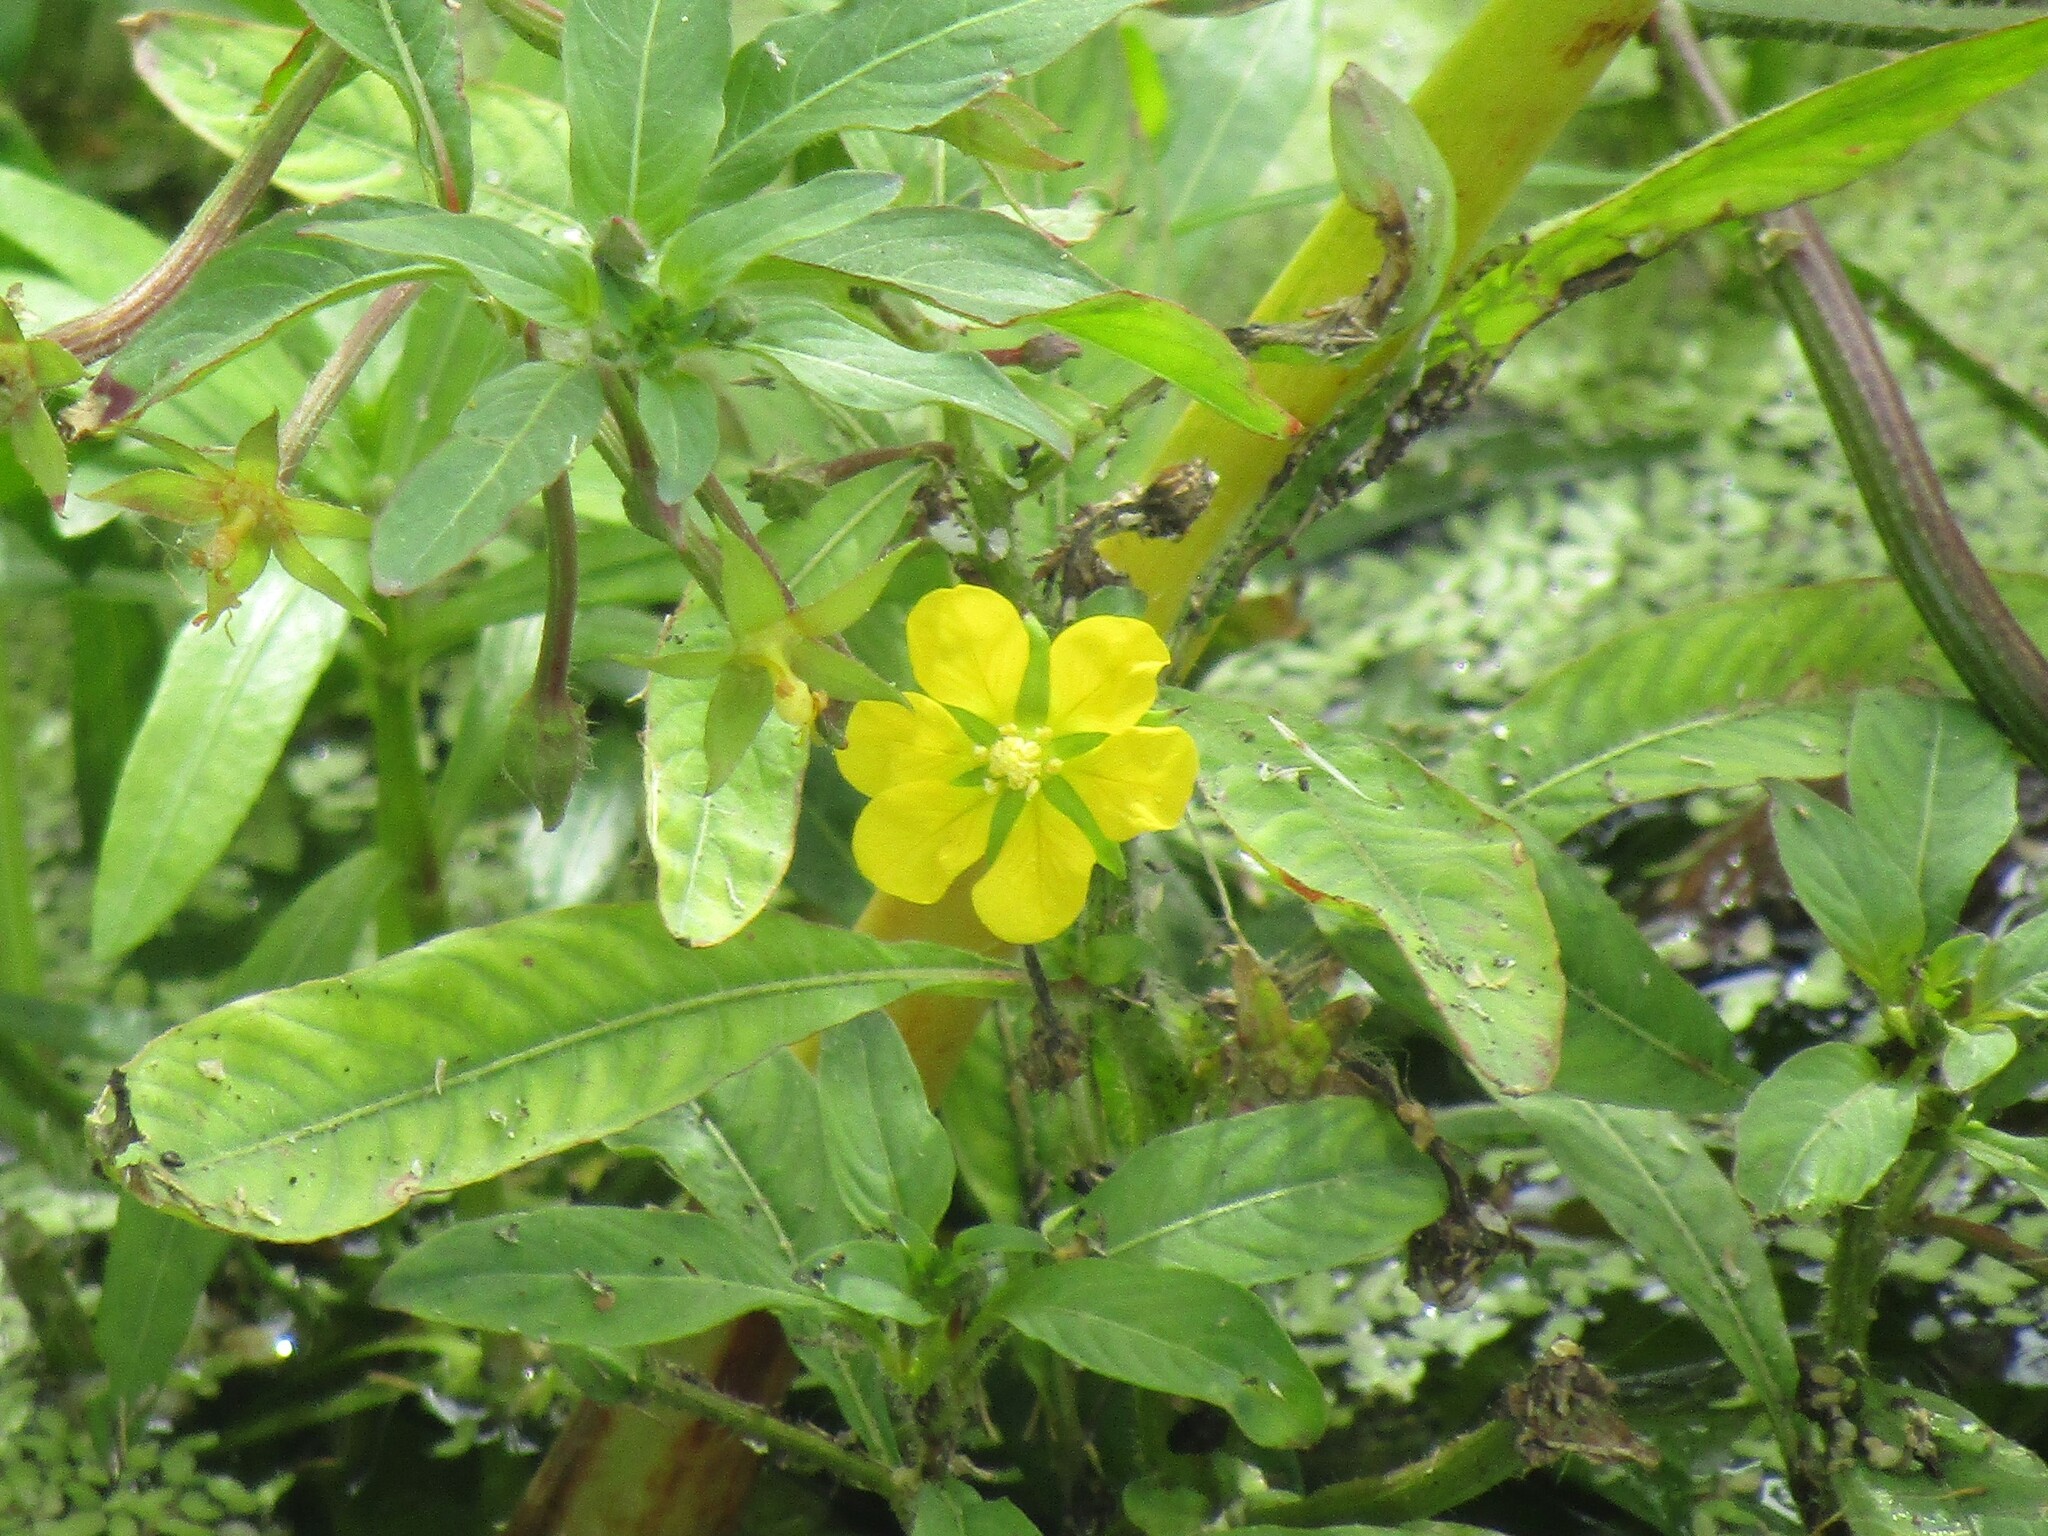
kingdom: Plantae
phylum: Tracheophyta
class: Magnoliopsida
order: Myrtales
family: Onagraceae
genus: Ludwigia
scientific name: Ludwigia leptocarpa
